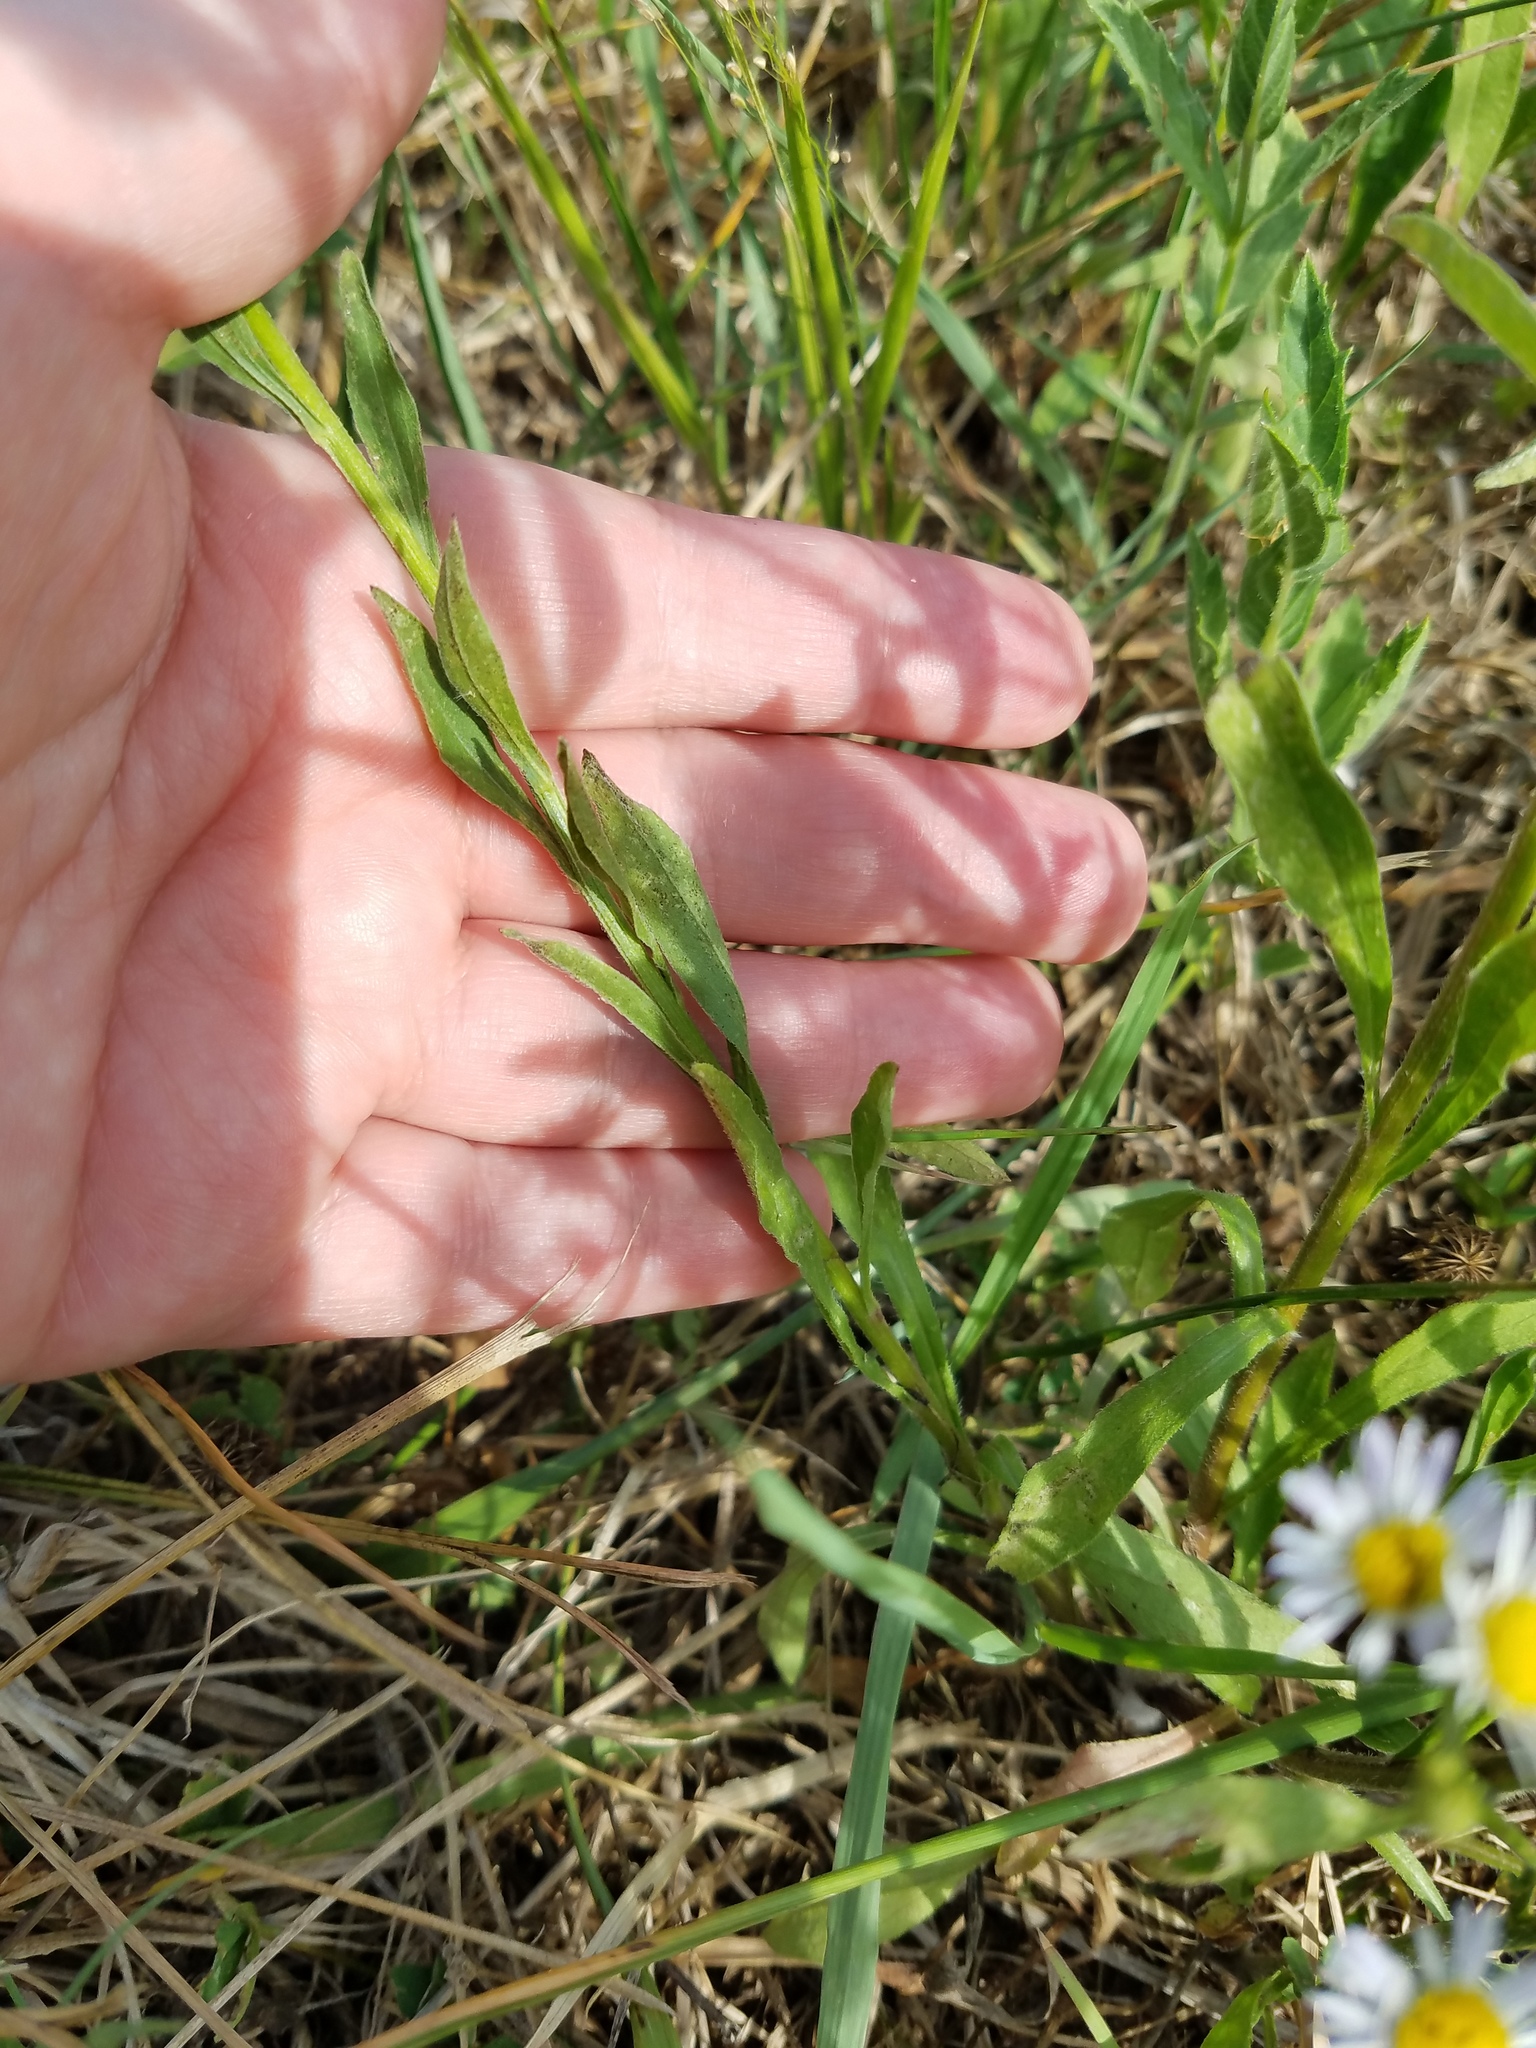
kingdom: Plantae
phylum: Tracheophyta
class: Magnoliopsida
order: Asterales
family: Asteraceae
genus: Erigeron
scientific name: Erigeron strigosus
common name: Common eastern fleabane
